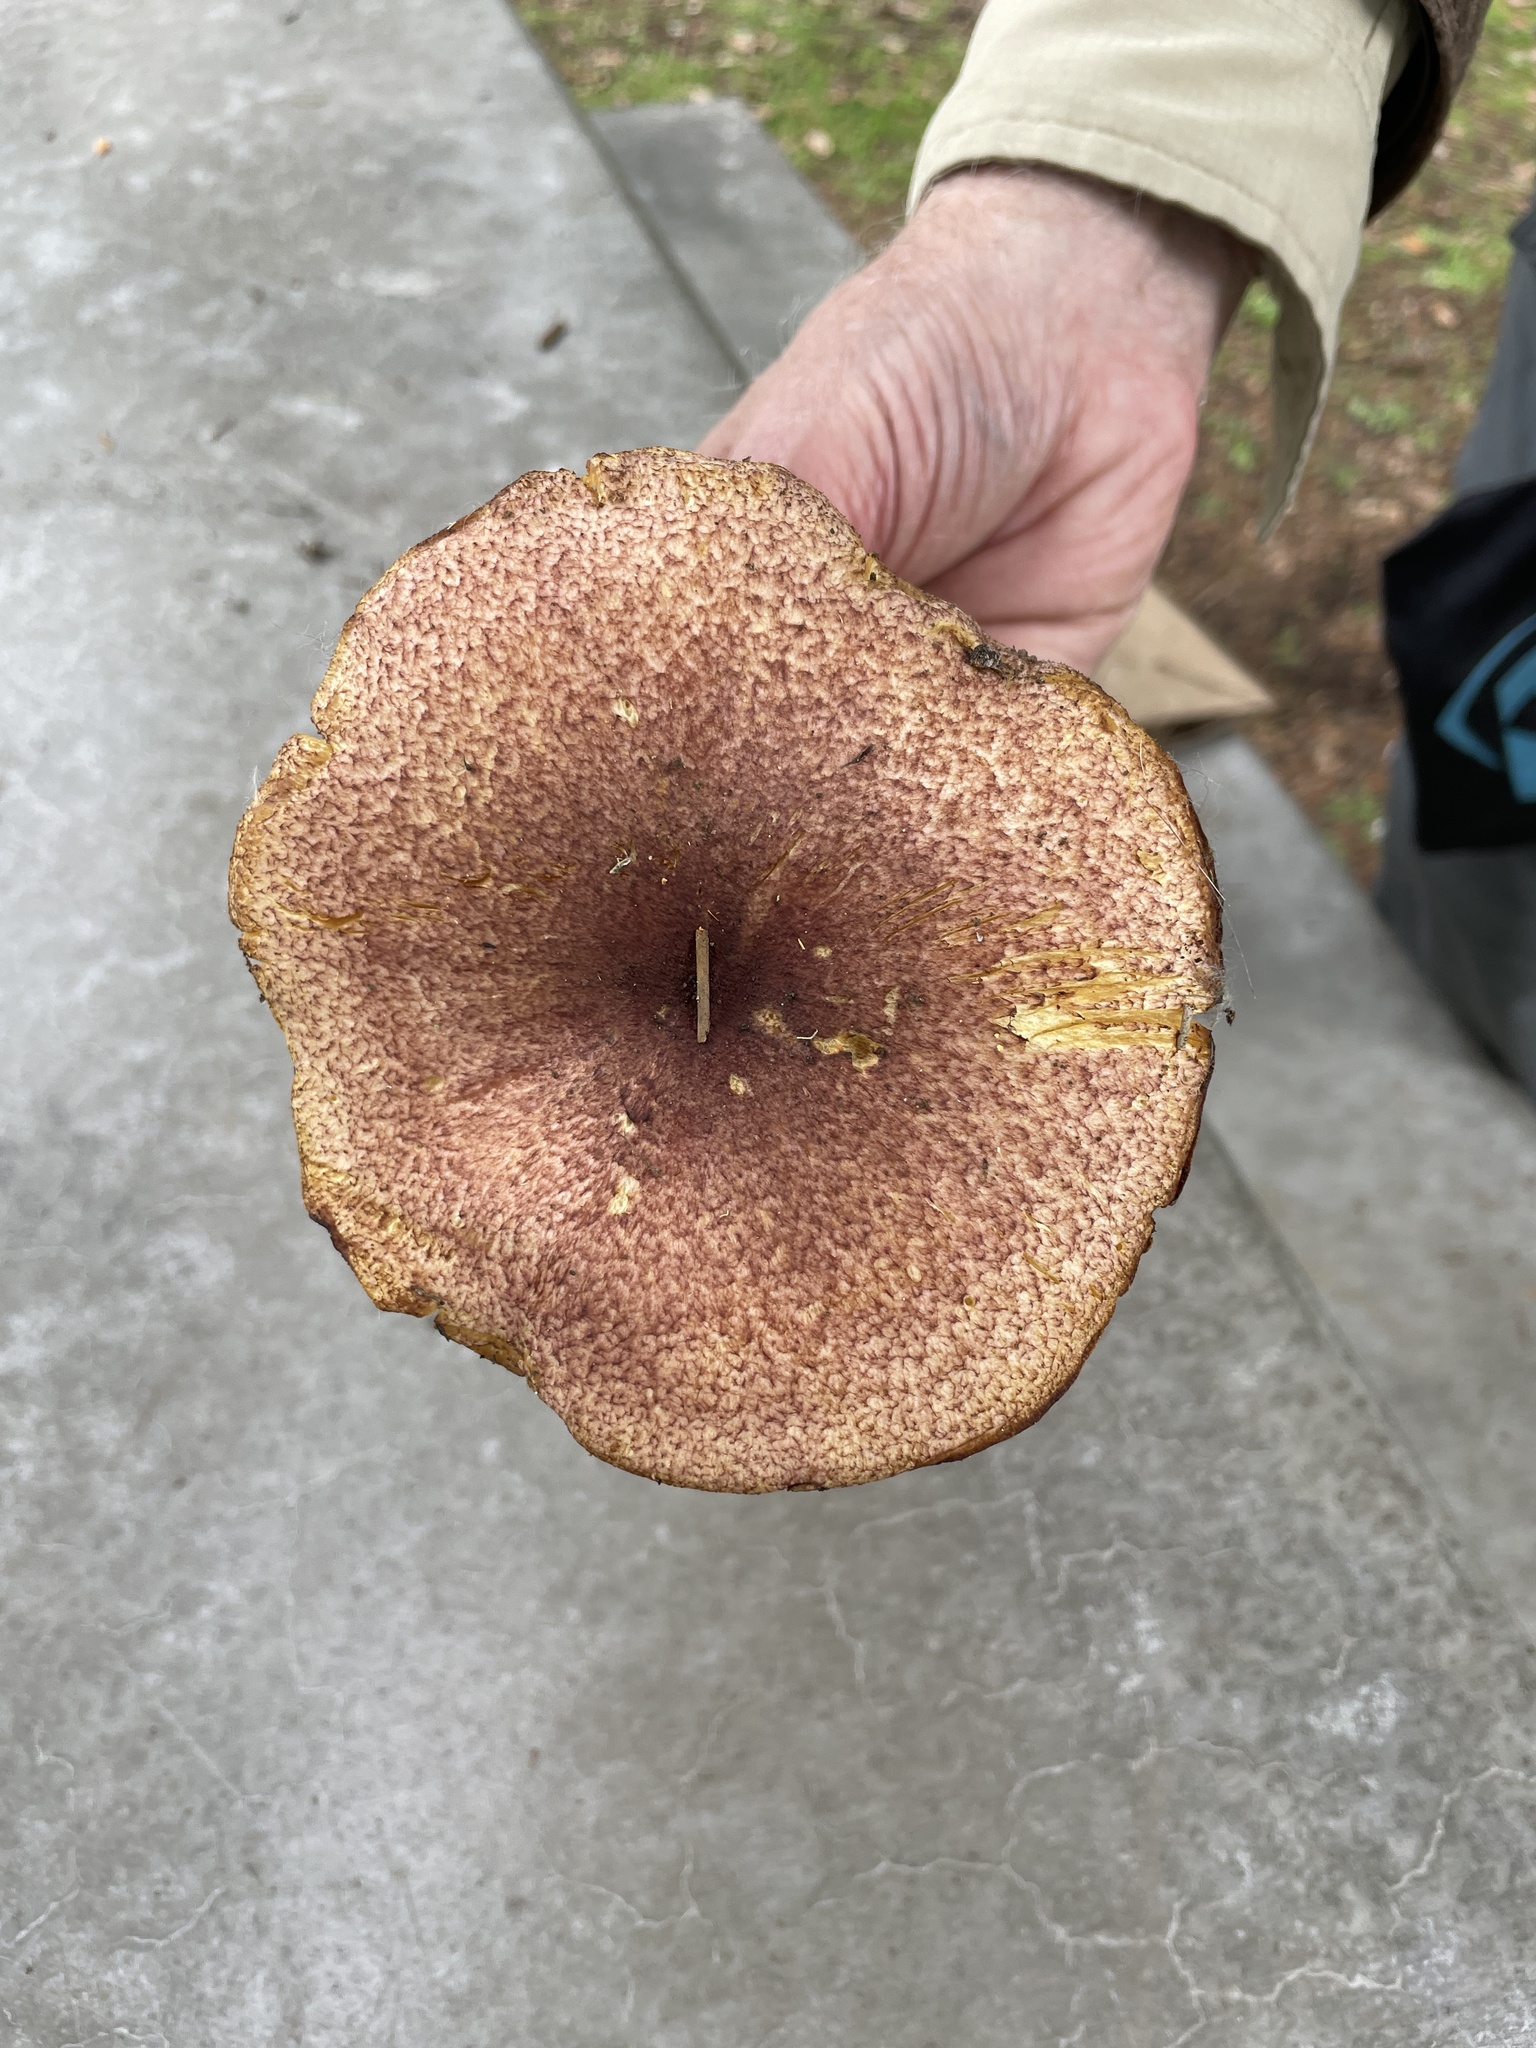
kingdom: Fungi
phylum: Basidiomycota
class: Agaricomycetes
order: Agaricales
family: Tricholomataceae
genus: Tricholomopsis
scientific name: Tricholomopsis rutilans
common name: Plums and custard
